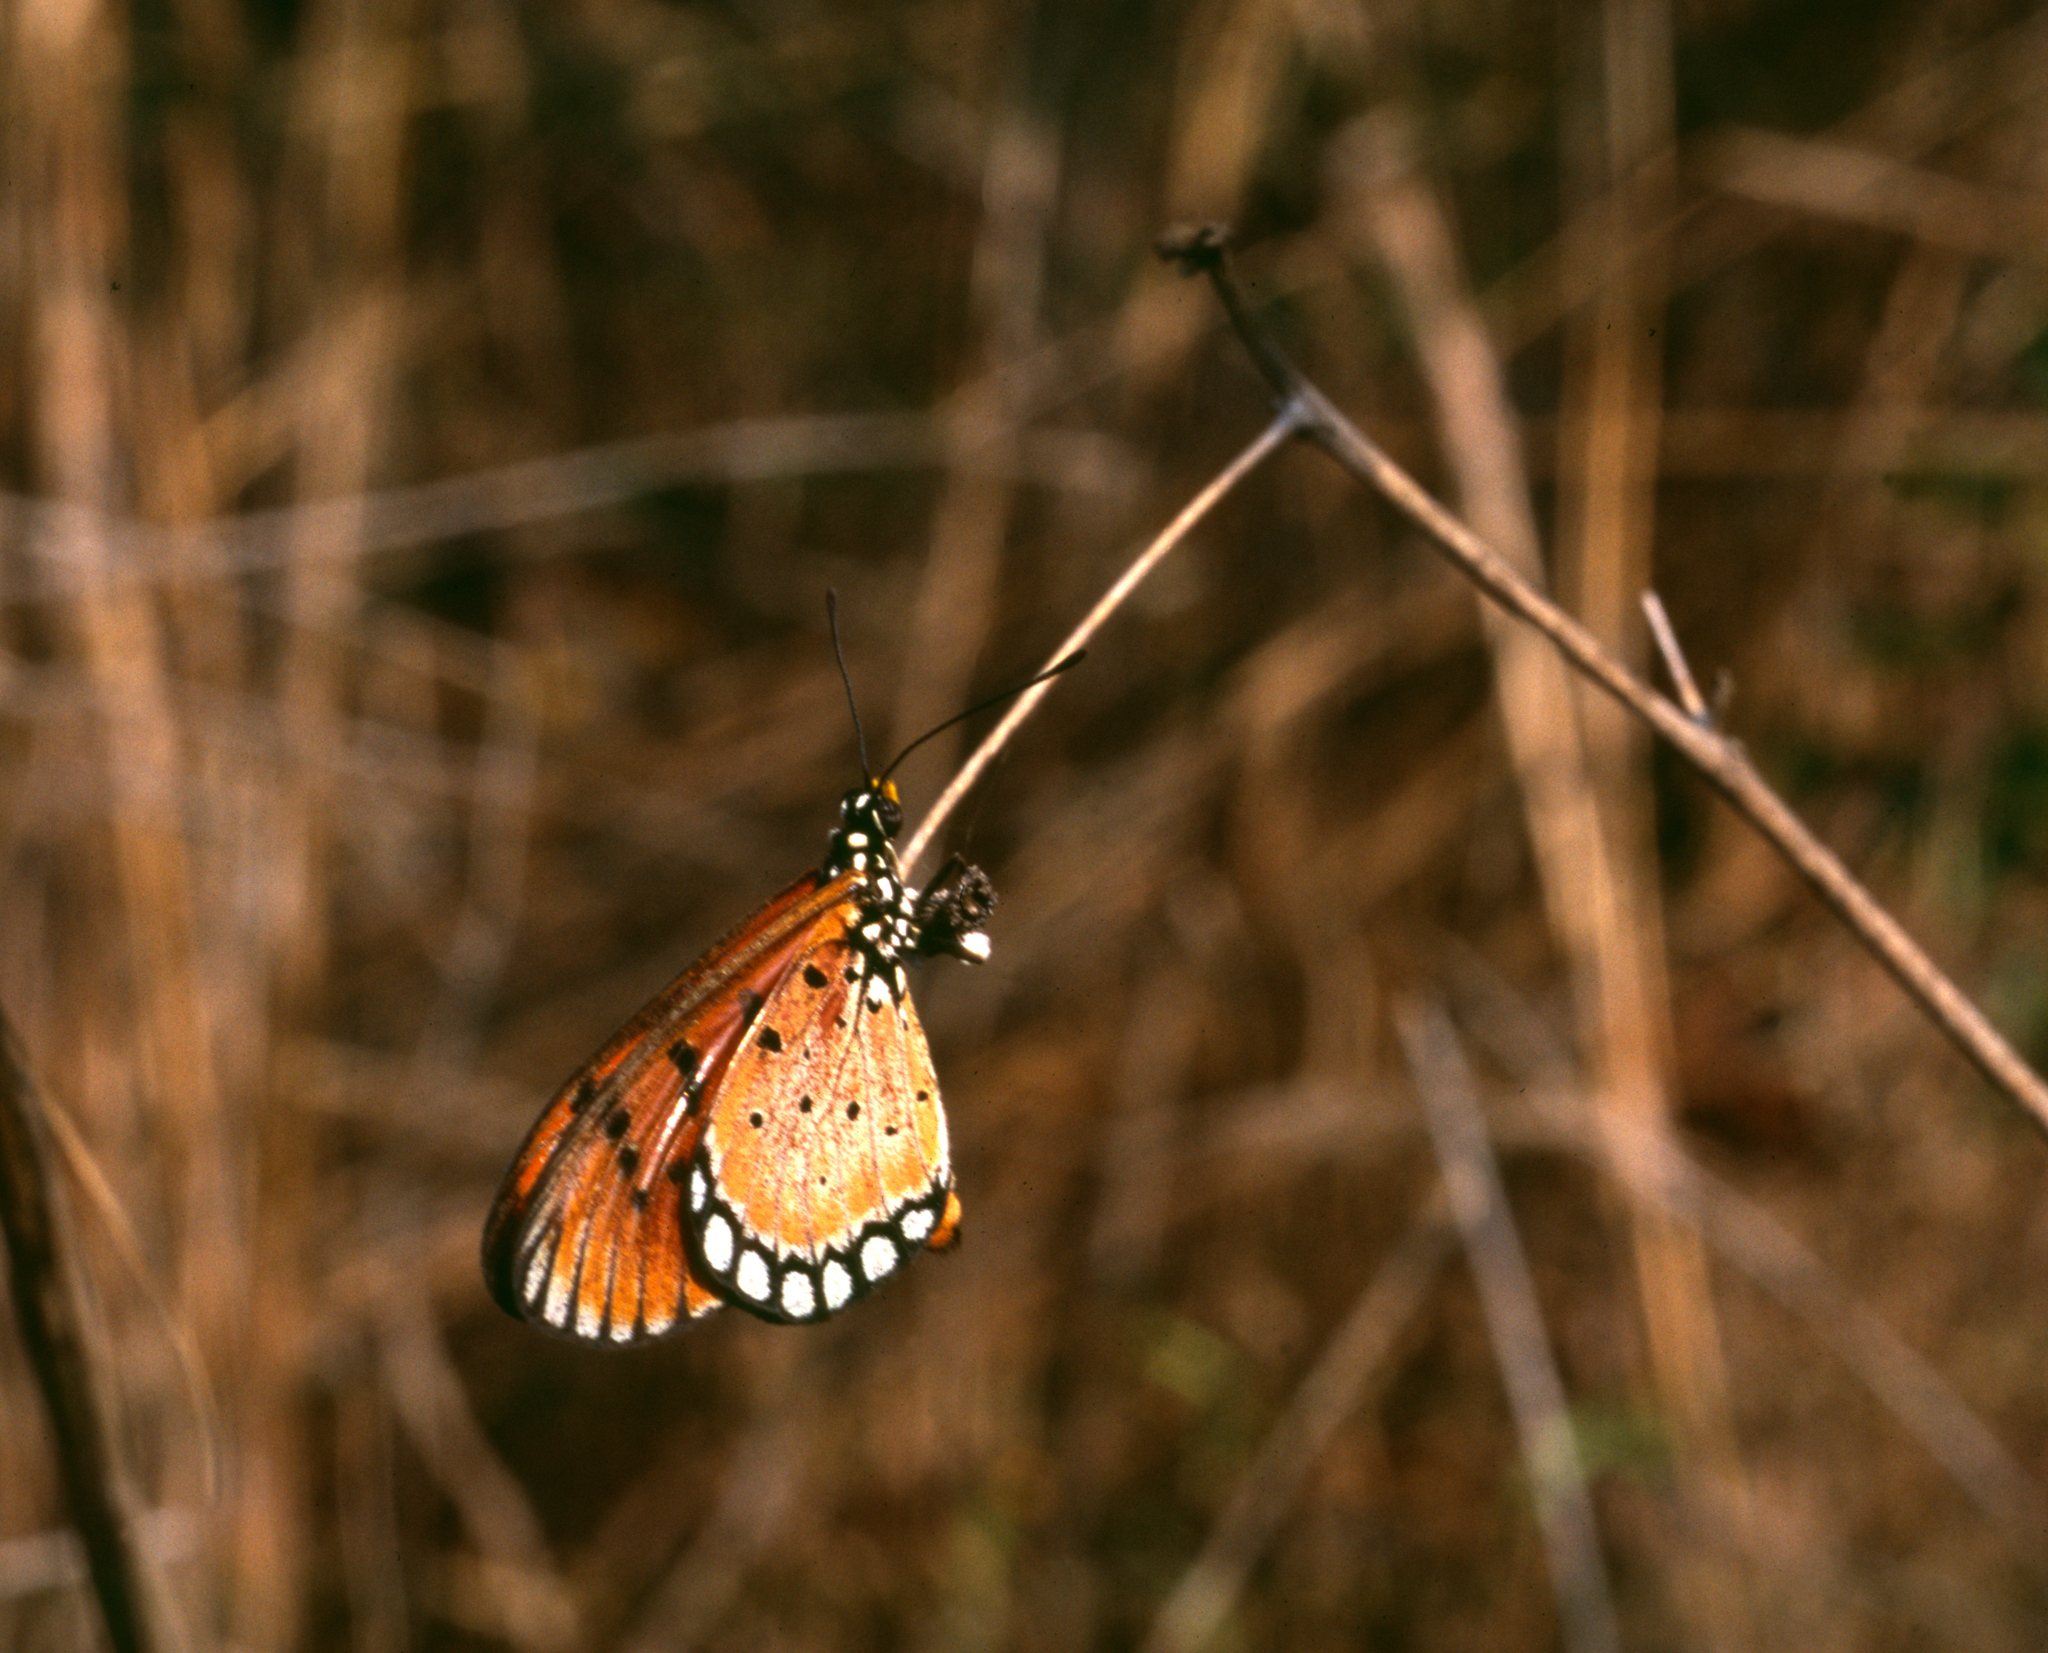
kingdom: Animalia
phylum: Arthropoda
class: Insecta
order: Lepidoptera
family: Nymphalidae
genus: Acraea
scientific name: Acraea terpsicore
